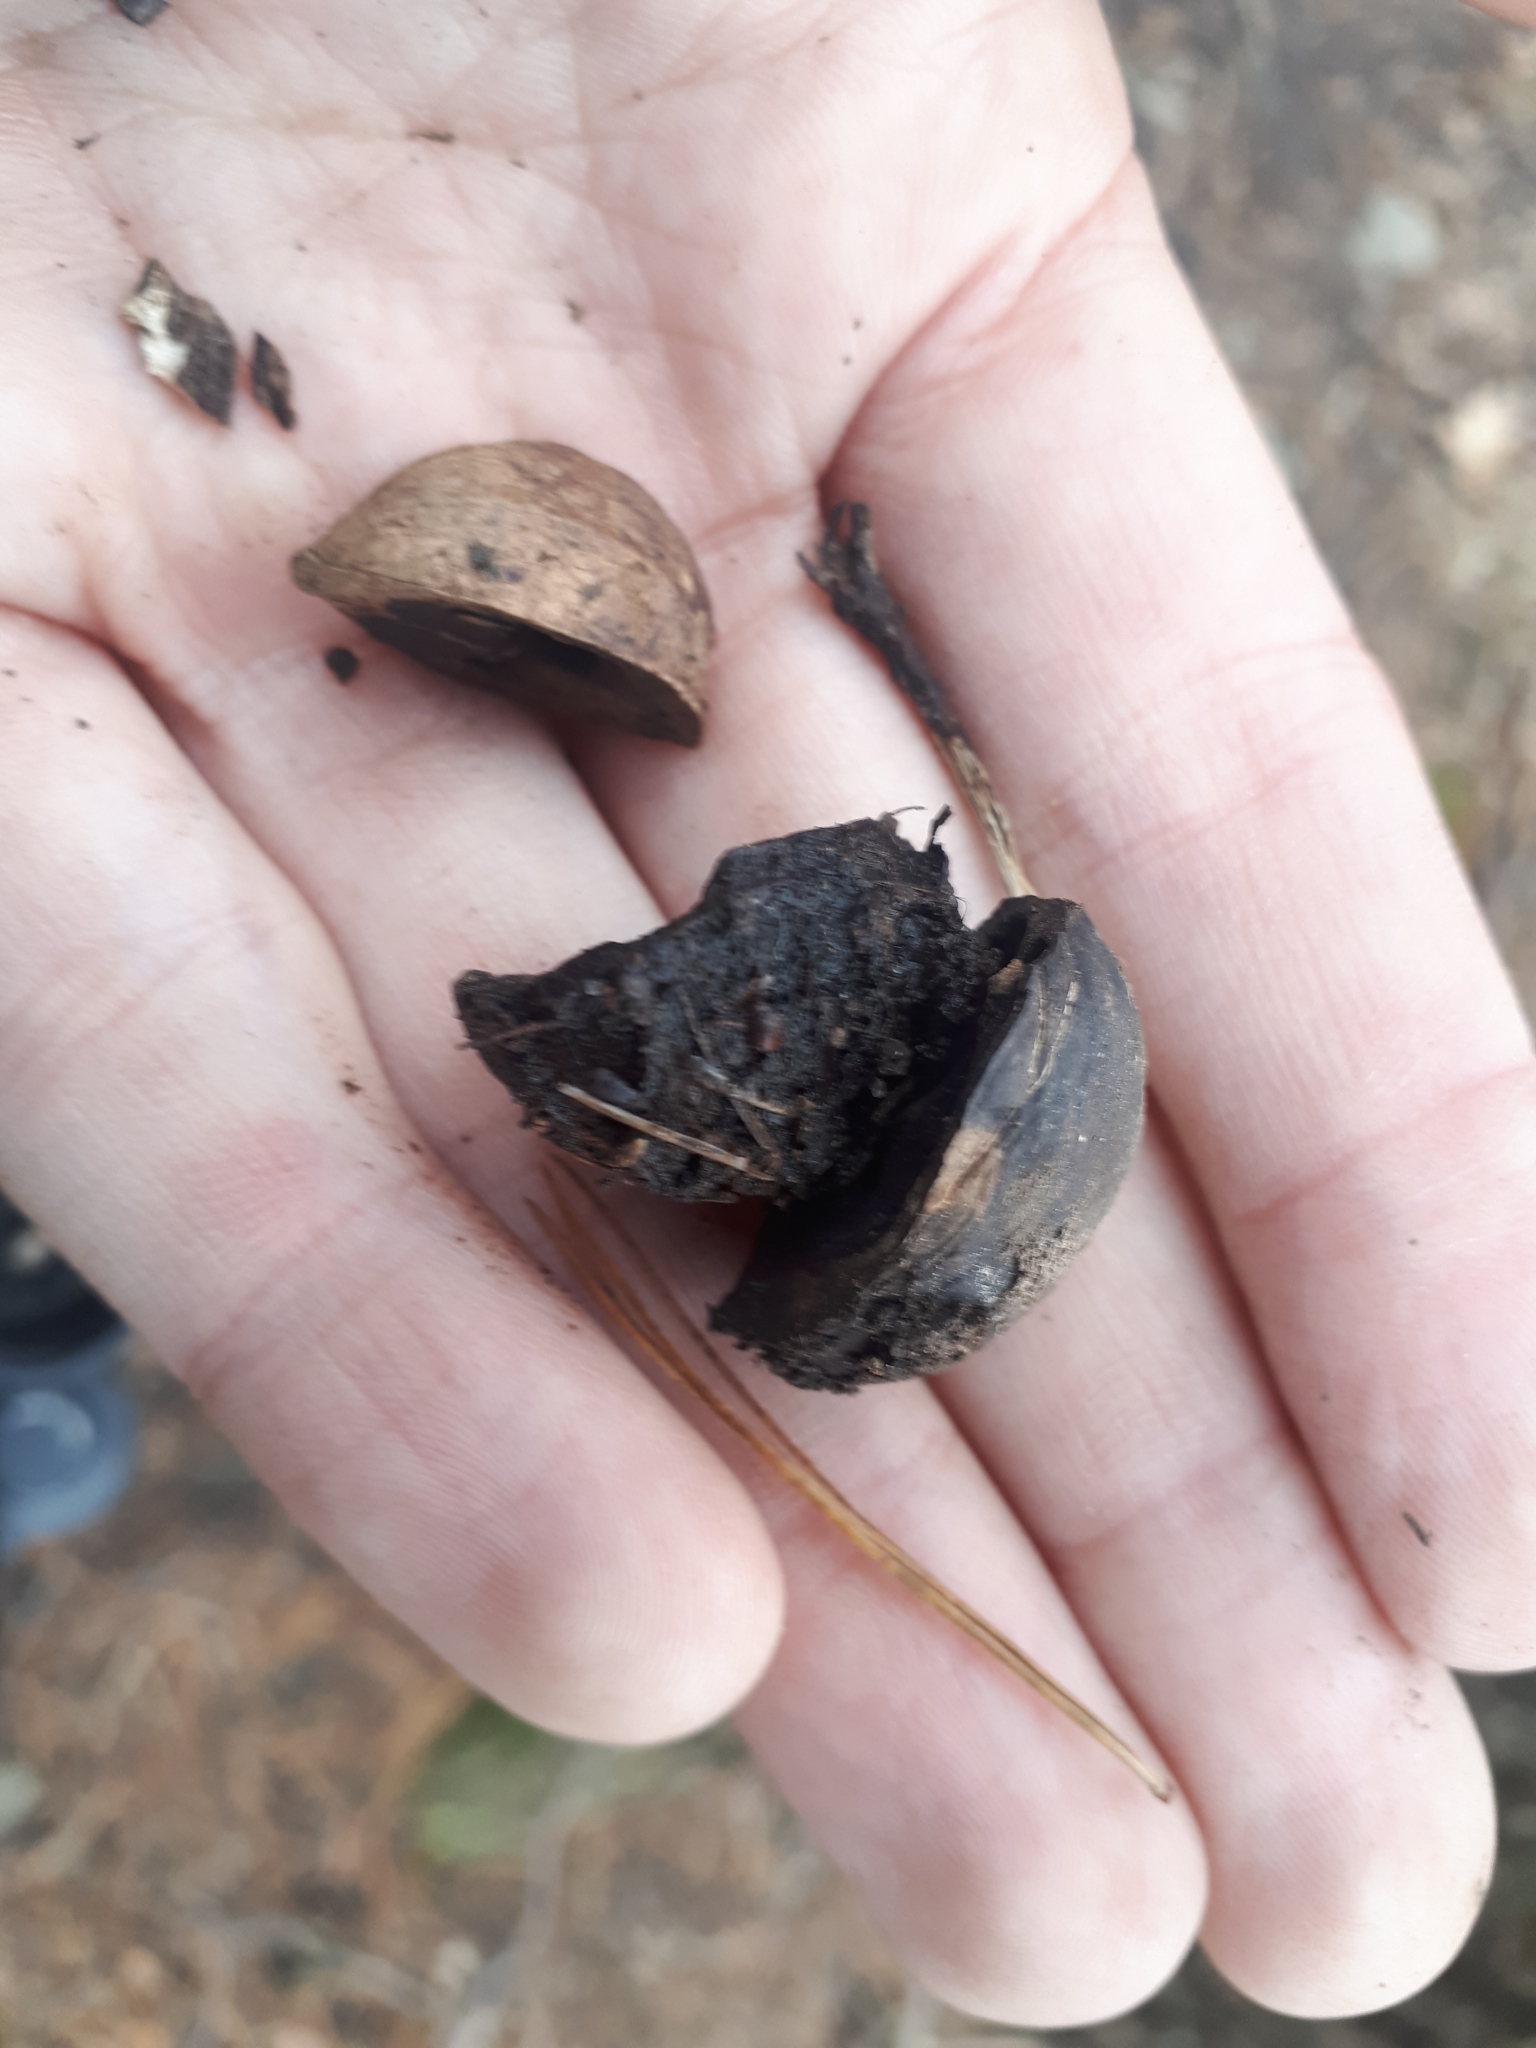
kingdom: Plantae
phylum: Tracheophyta
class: Magnoliopsida
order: Fagales
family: Juglandaceae
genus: Carya
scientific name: Carya glabra
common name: Pignut hickory
